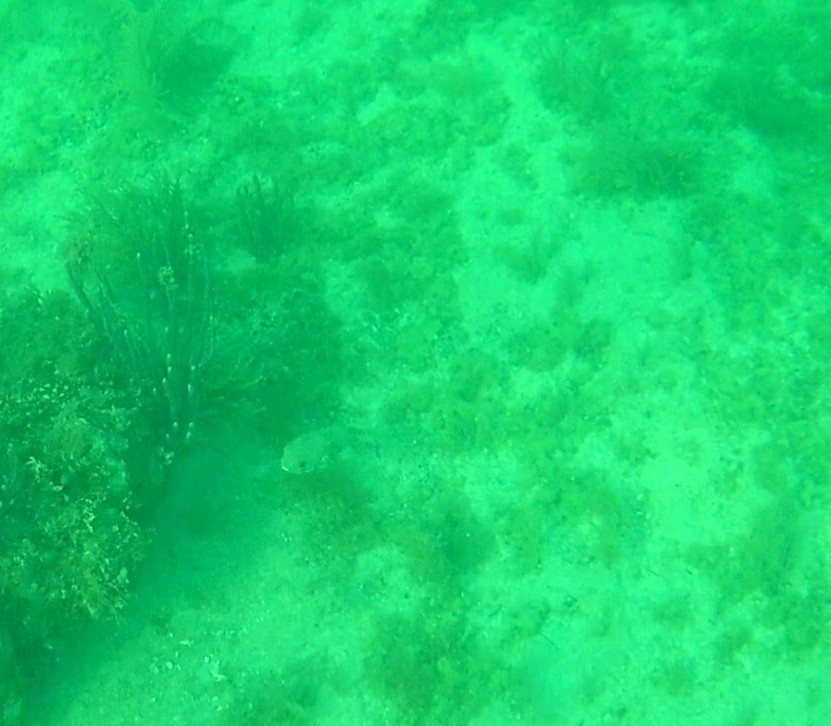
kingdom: Animalia
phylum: Chordata
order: Tetraodontiformes
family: Diodontidae
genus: Diodon
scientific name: Diodon hystrix
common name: Giant porcupinefish
